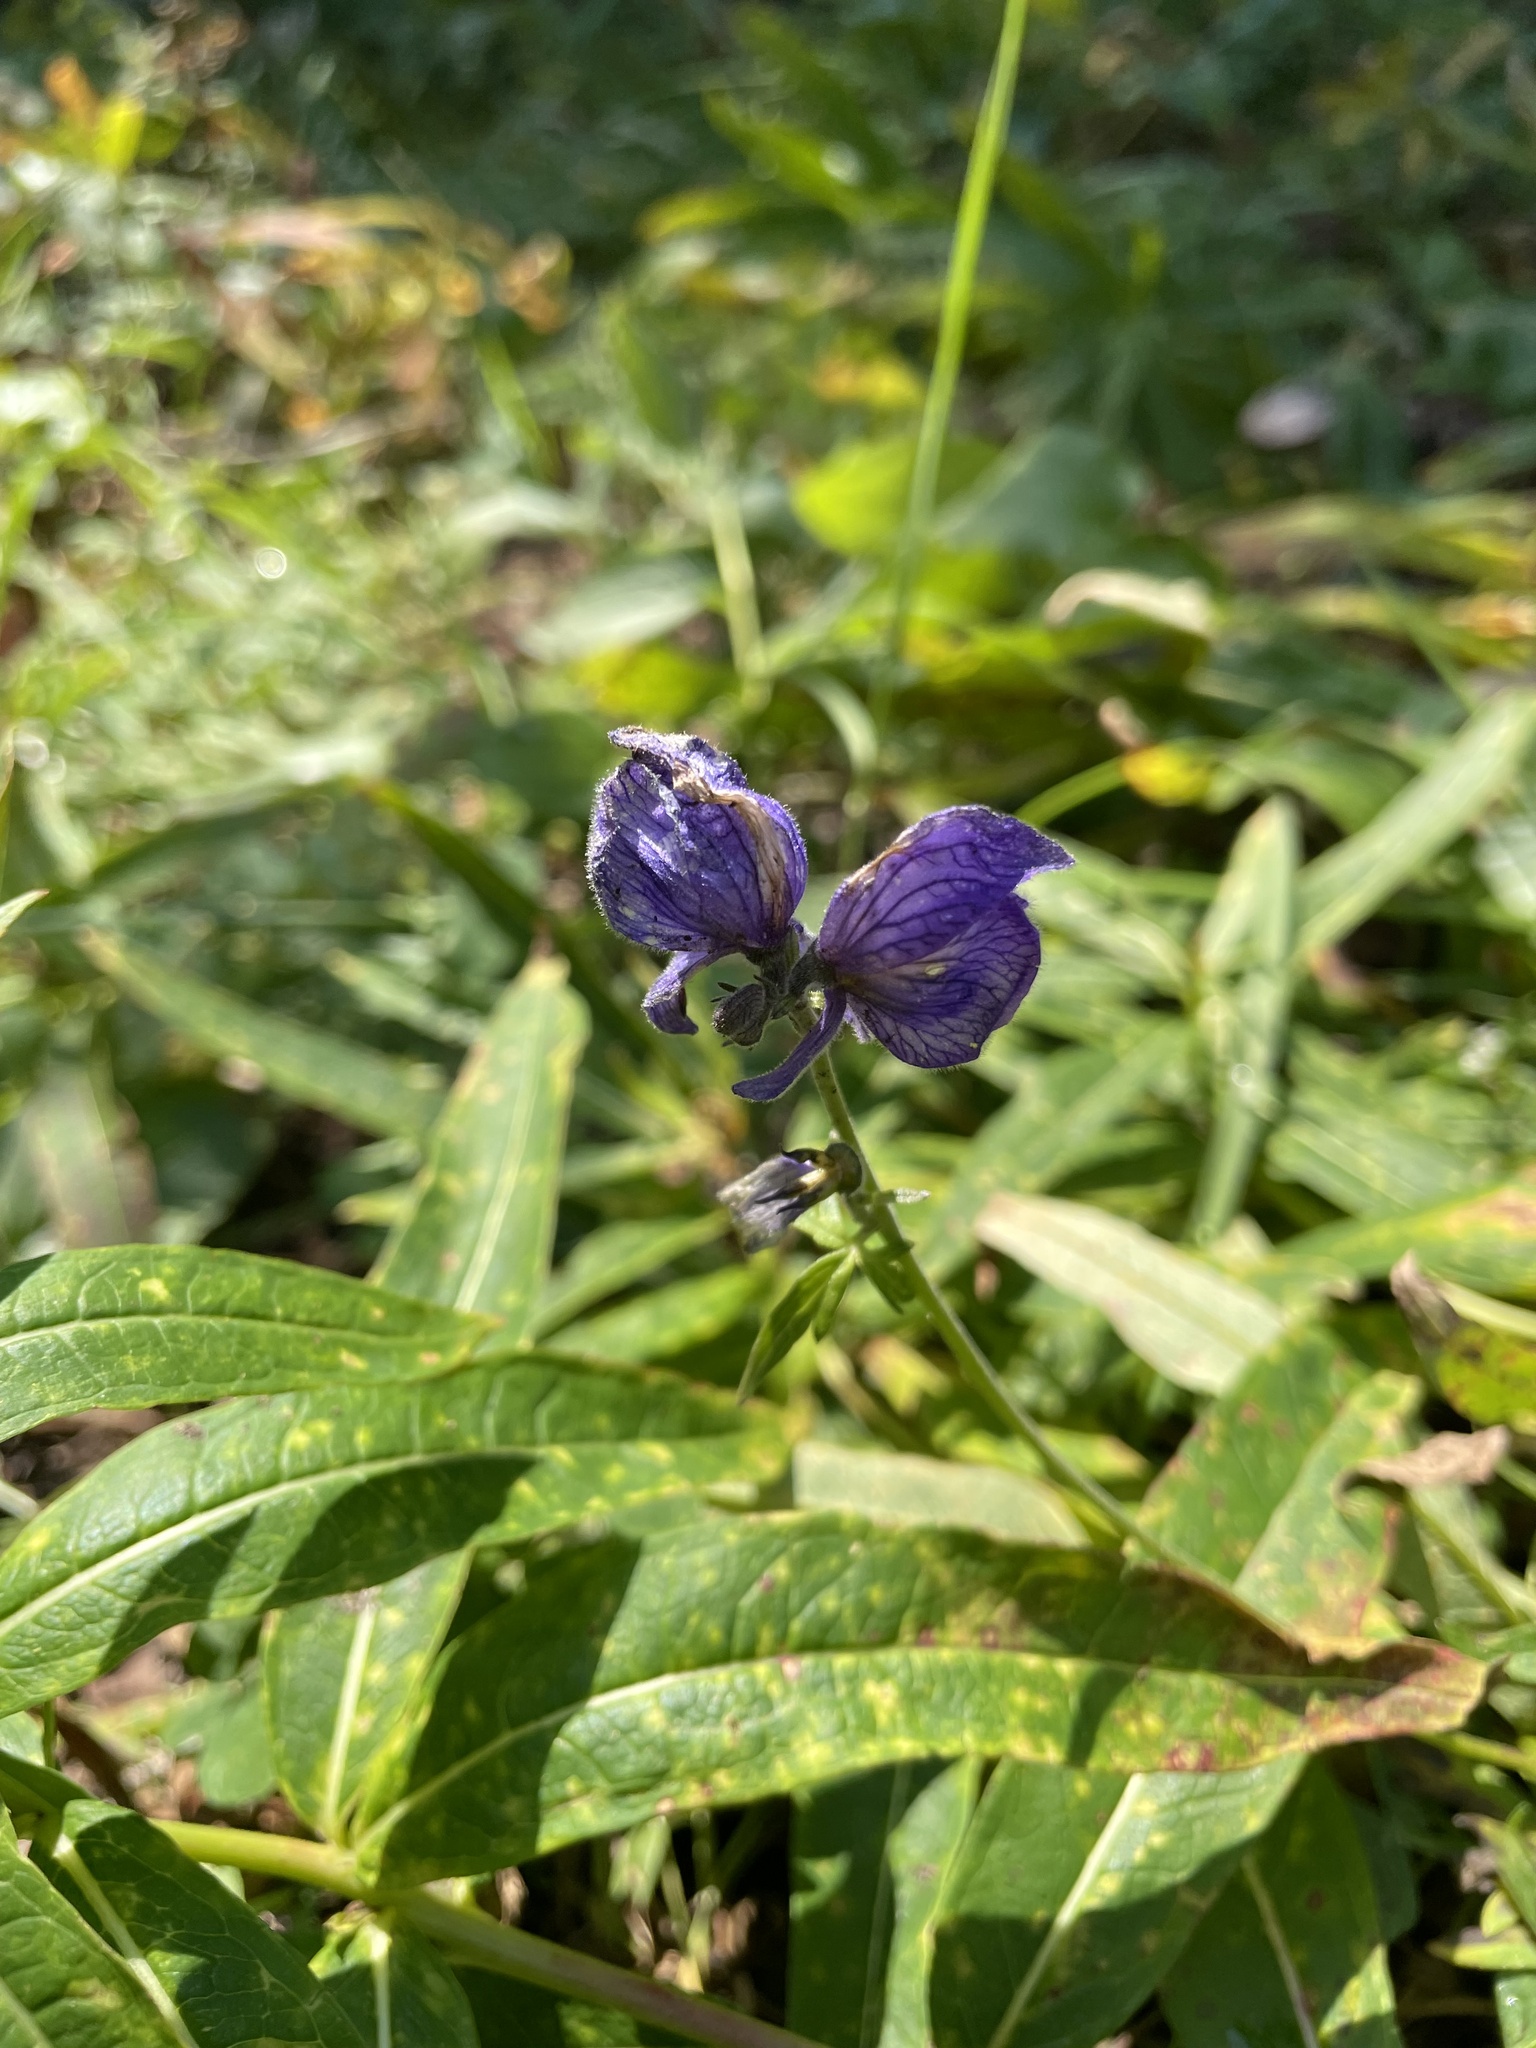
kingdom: Plantae
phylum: Tracheophyta
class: Magnoliopsida
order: Ranunculales
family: Ranunculaceae
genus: Aconitum
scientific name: Aconitum delphiniifolium
